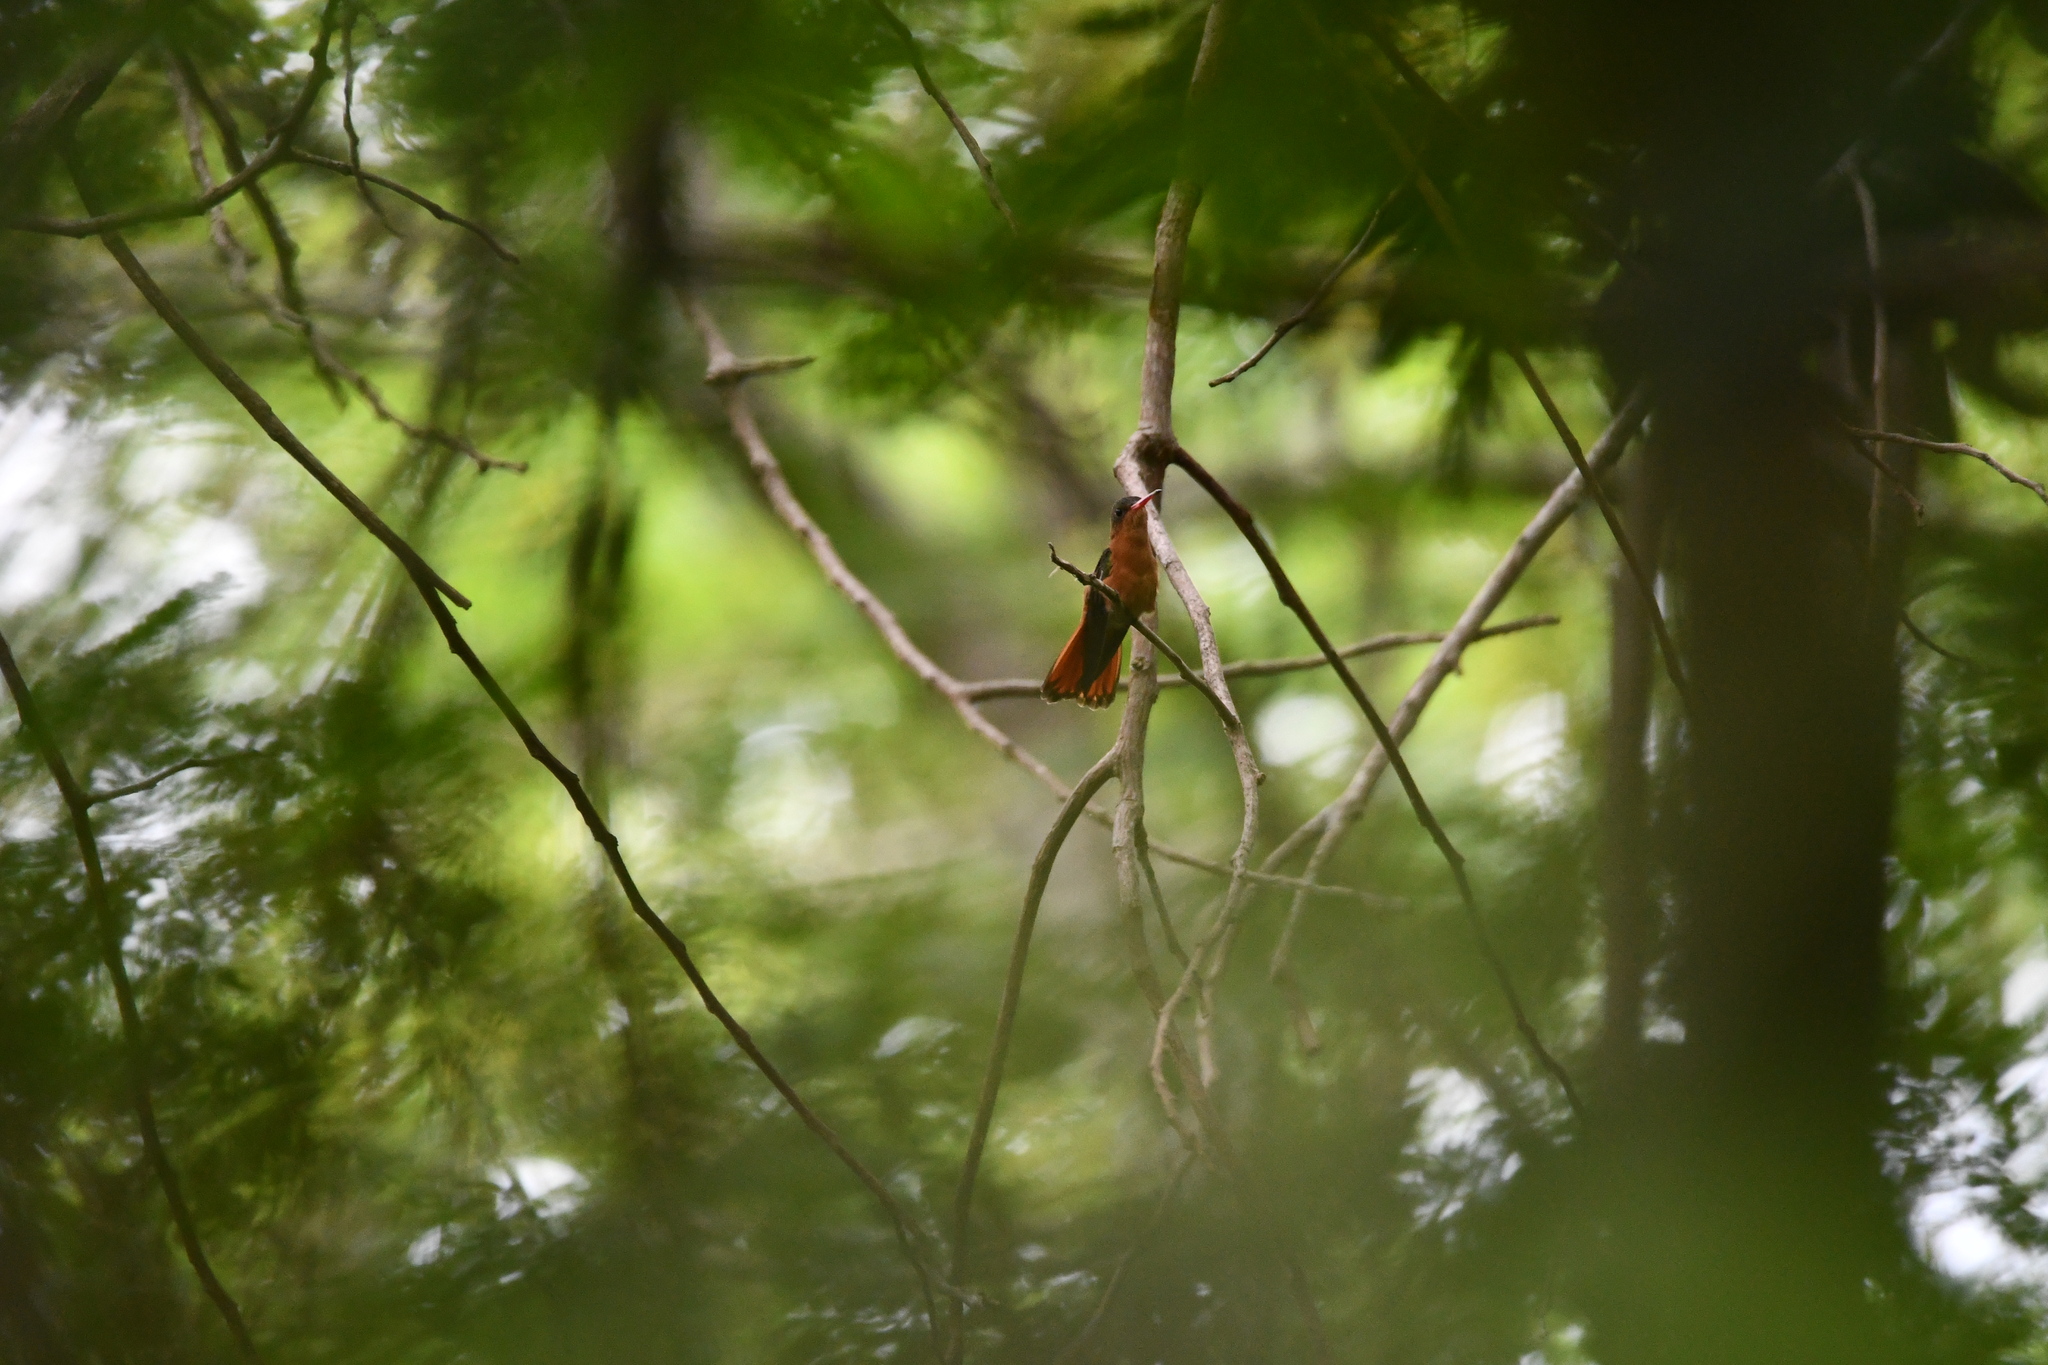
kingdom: Animalia
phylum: Chordata
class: Aves
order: Apodiformes
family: Trochilidae
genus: Amazilia
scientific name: Amazilia rutila
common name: Cinnamon hummingbird
